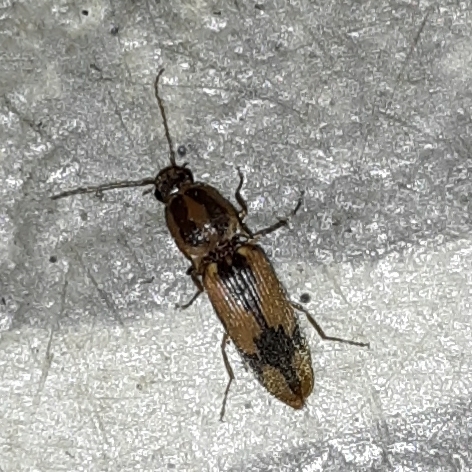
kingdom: Animalia
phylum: Arthropoda
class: Insecta
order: Coleoptera
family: Elateridae
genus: Monocrepidius
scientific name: Monocrepidius
